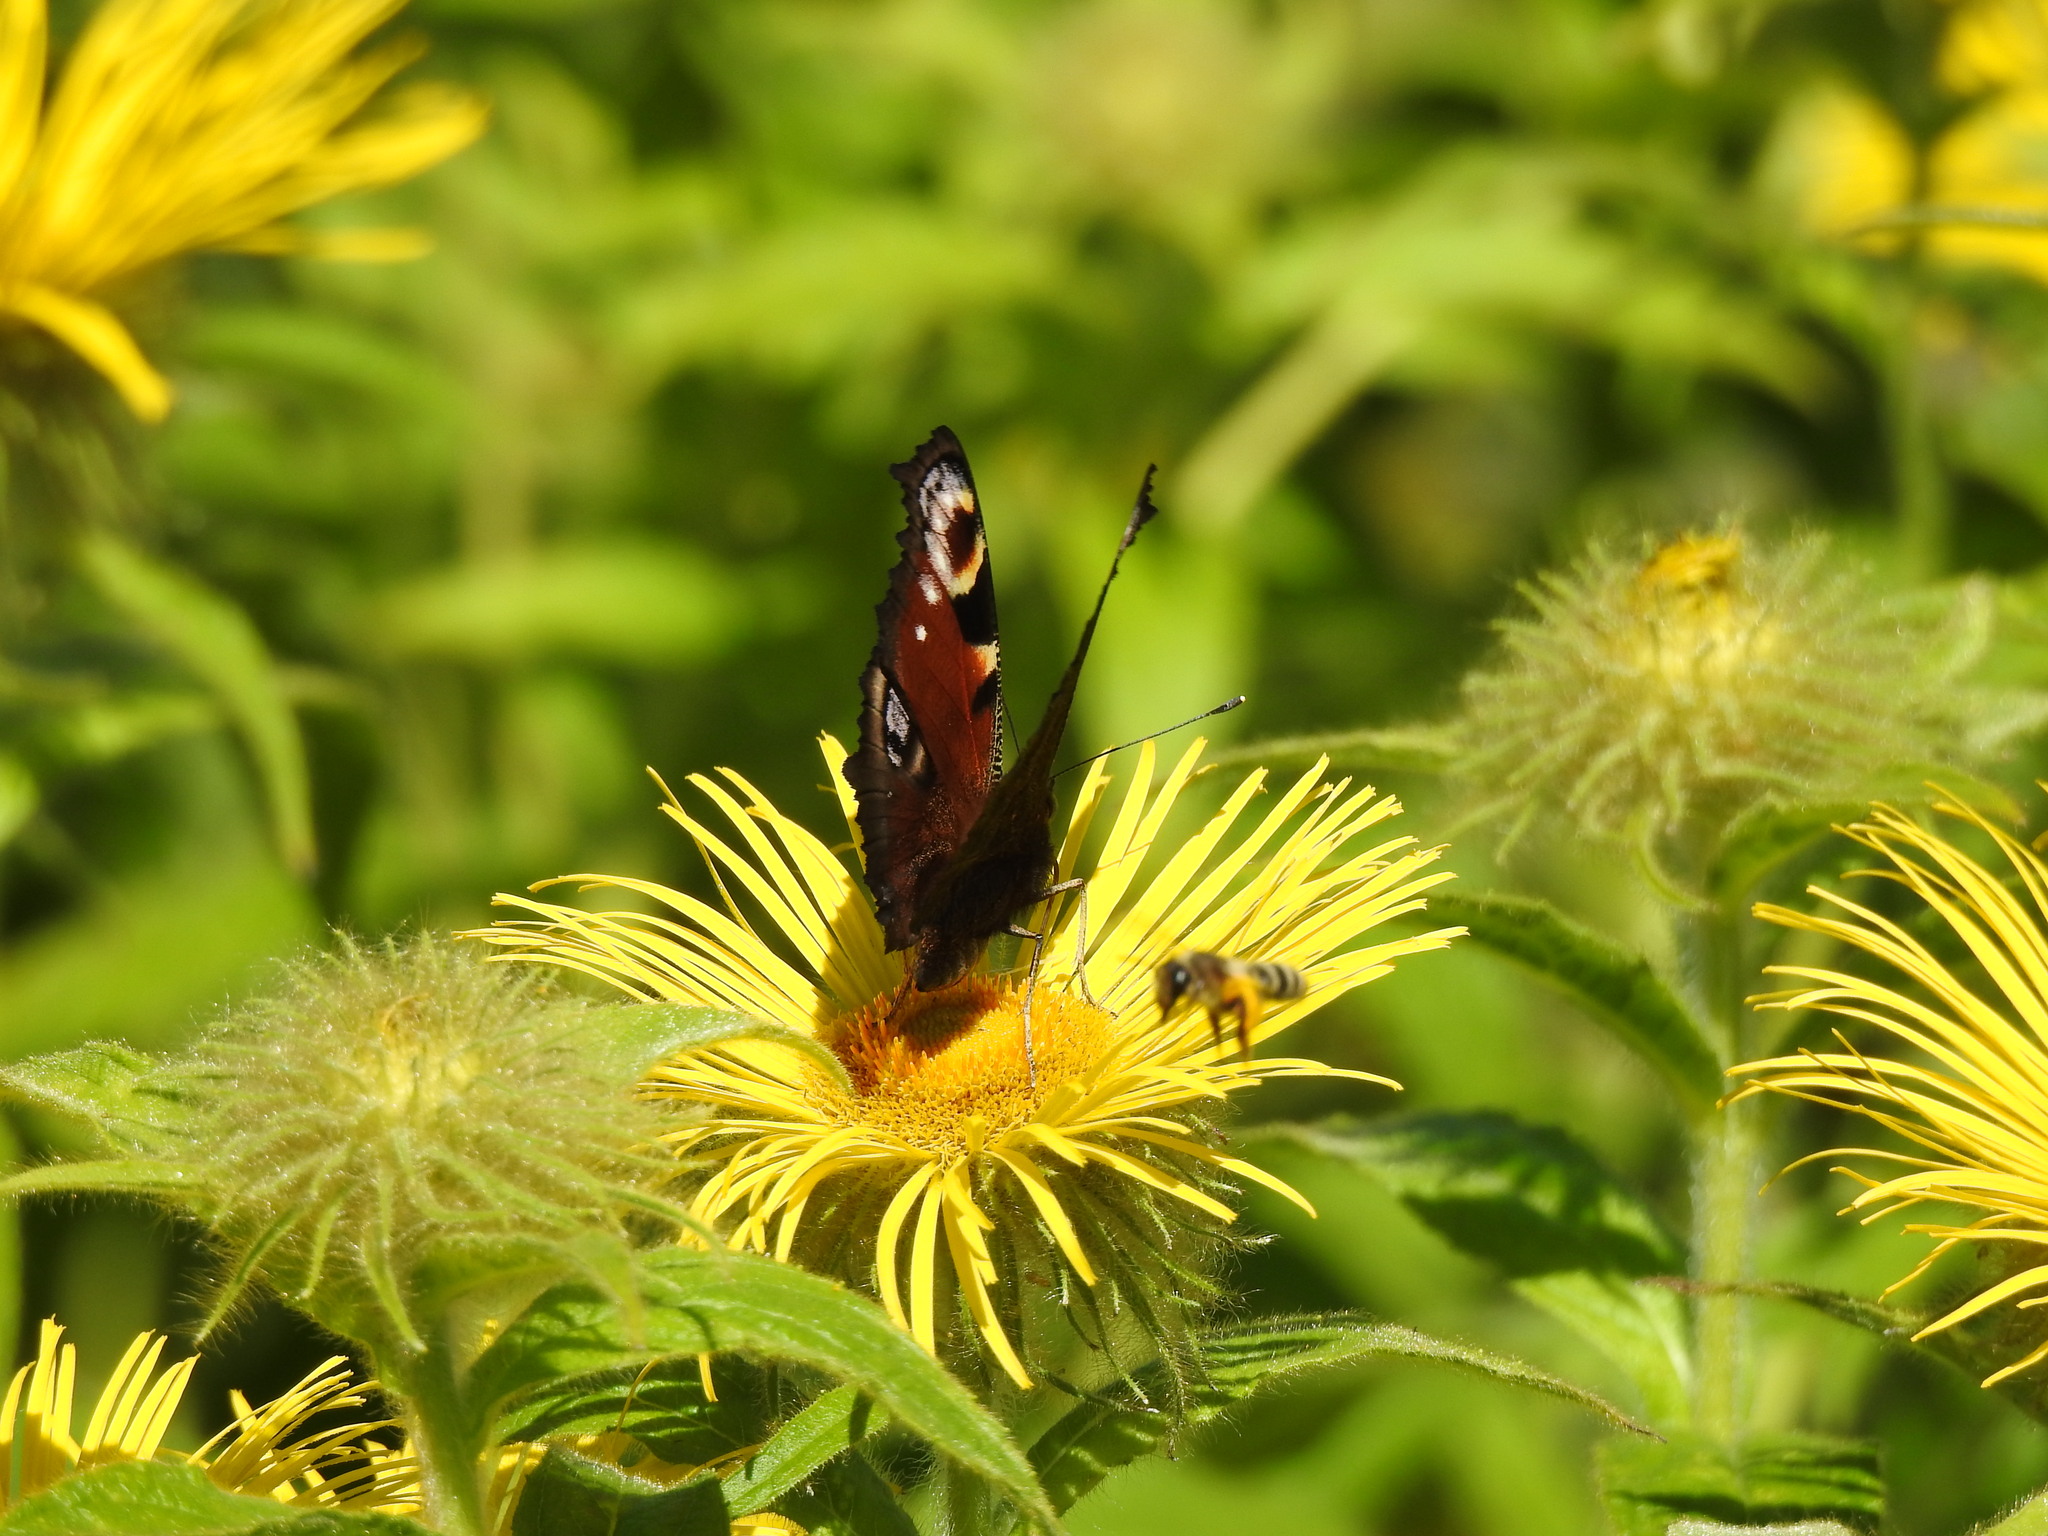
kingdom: Animalia
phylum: Arthropoda
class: Insecta
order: Lepidoptera
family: Nymphalidae
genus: Aglais
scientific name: Aglais io
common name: Peacock
